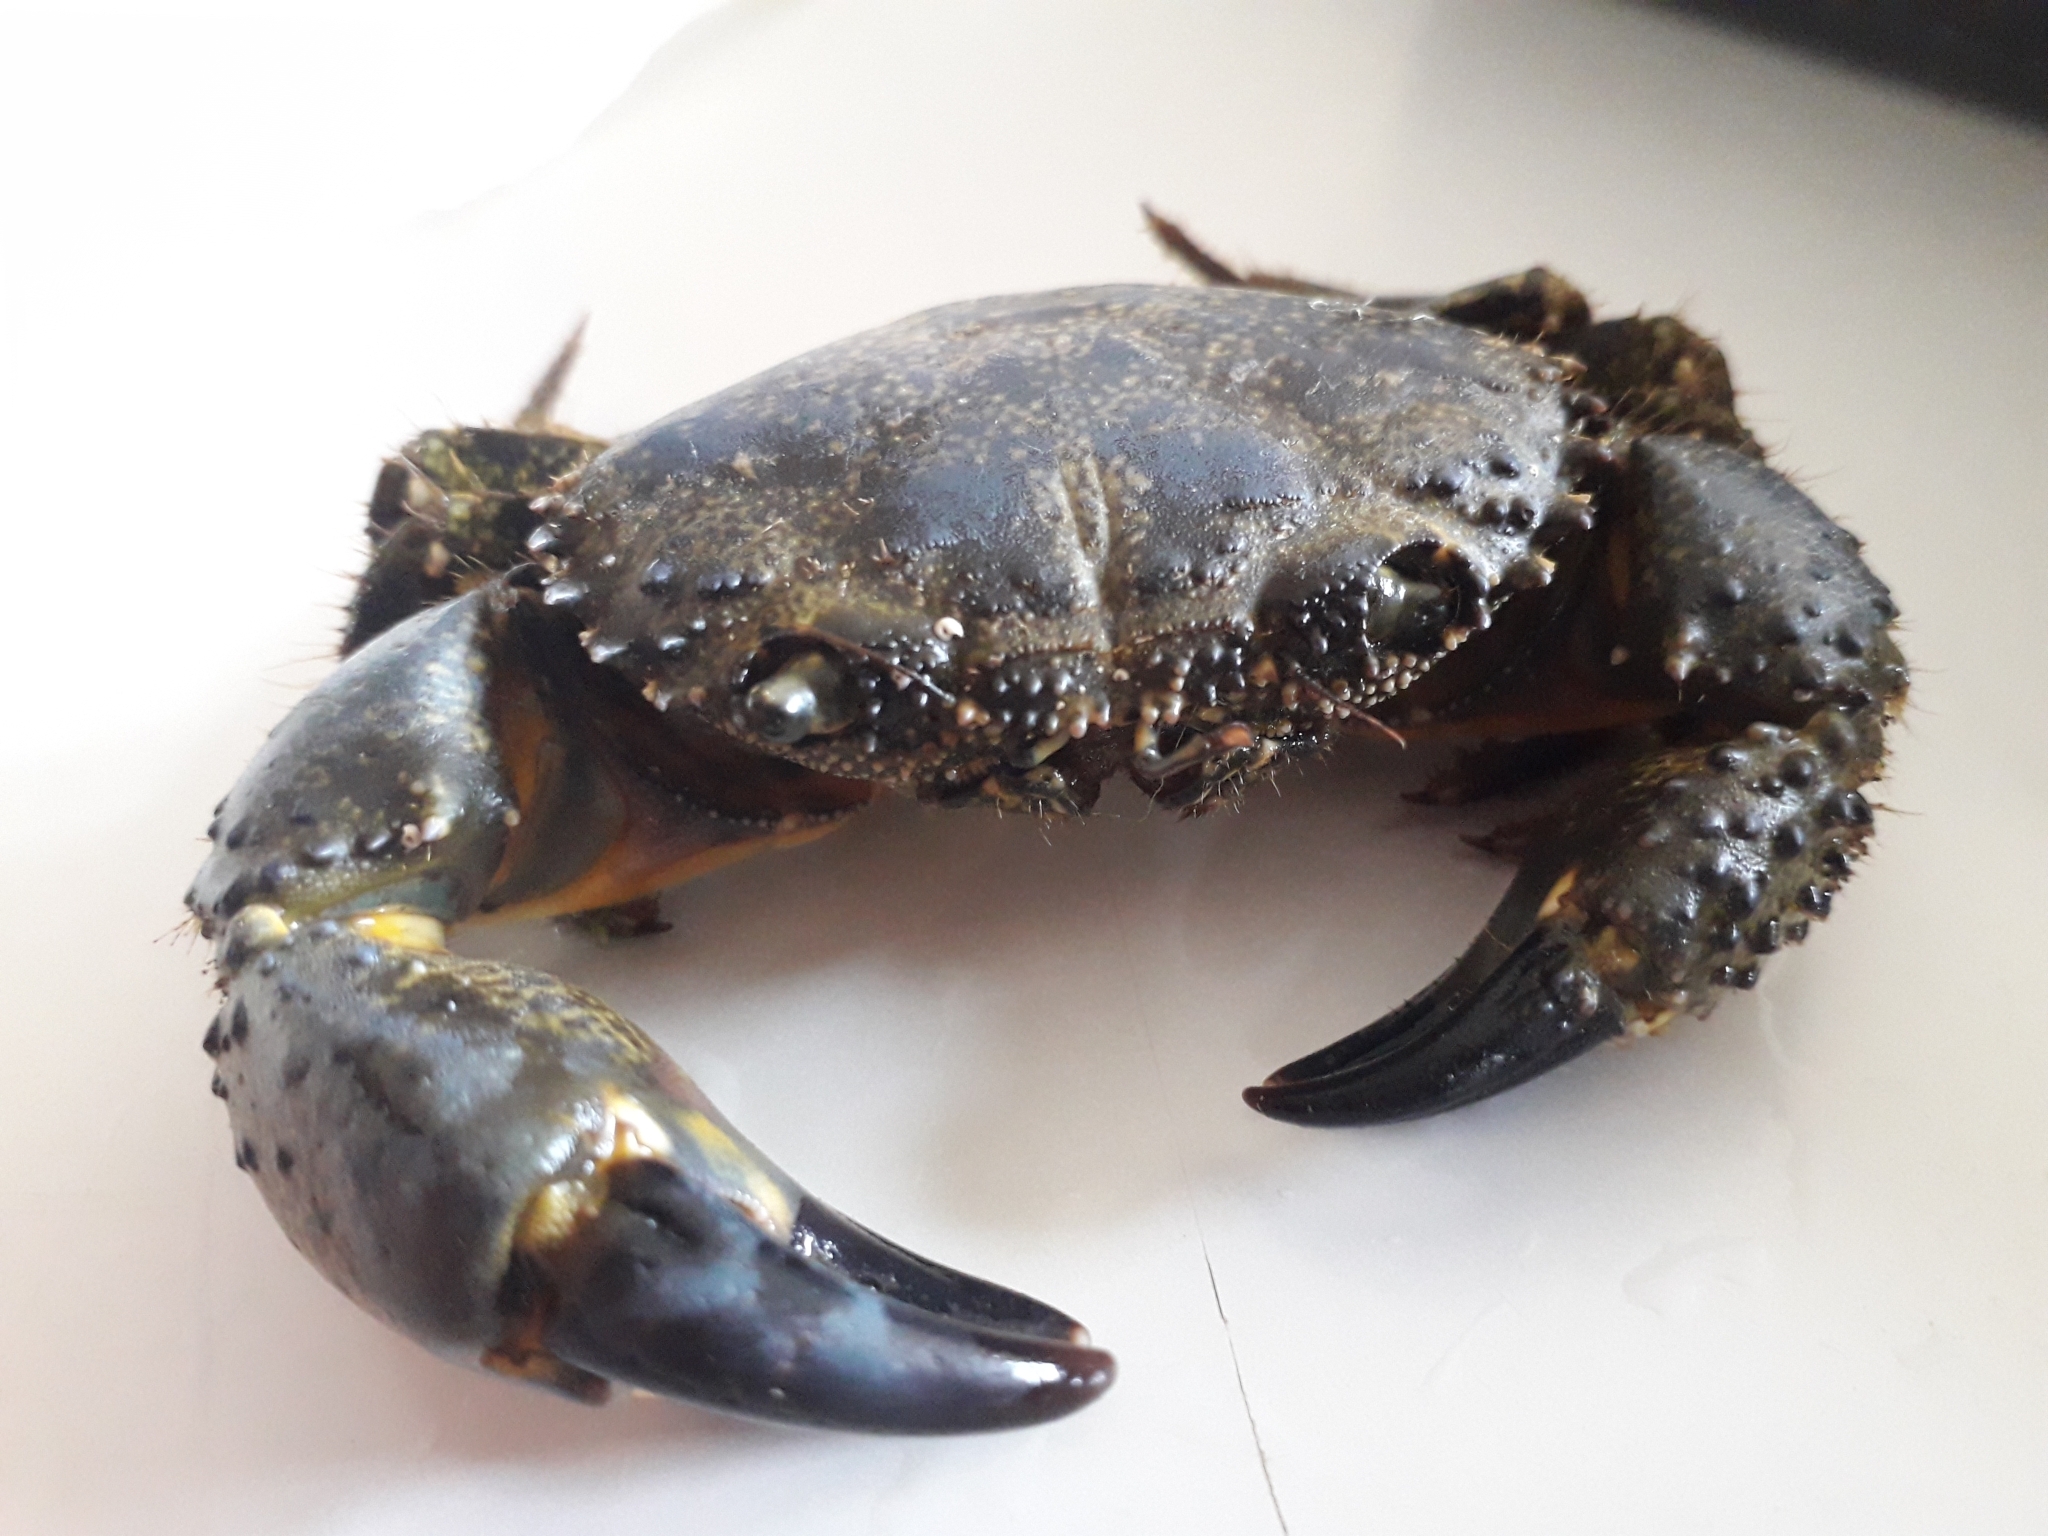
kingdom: Animalia
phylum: Arthropoda
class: Malacostraca
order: Decapoda
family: Eriphiidae
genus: Eriphia
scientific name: Eriphia verrucosa
